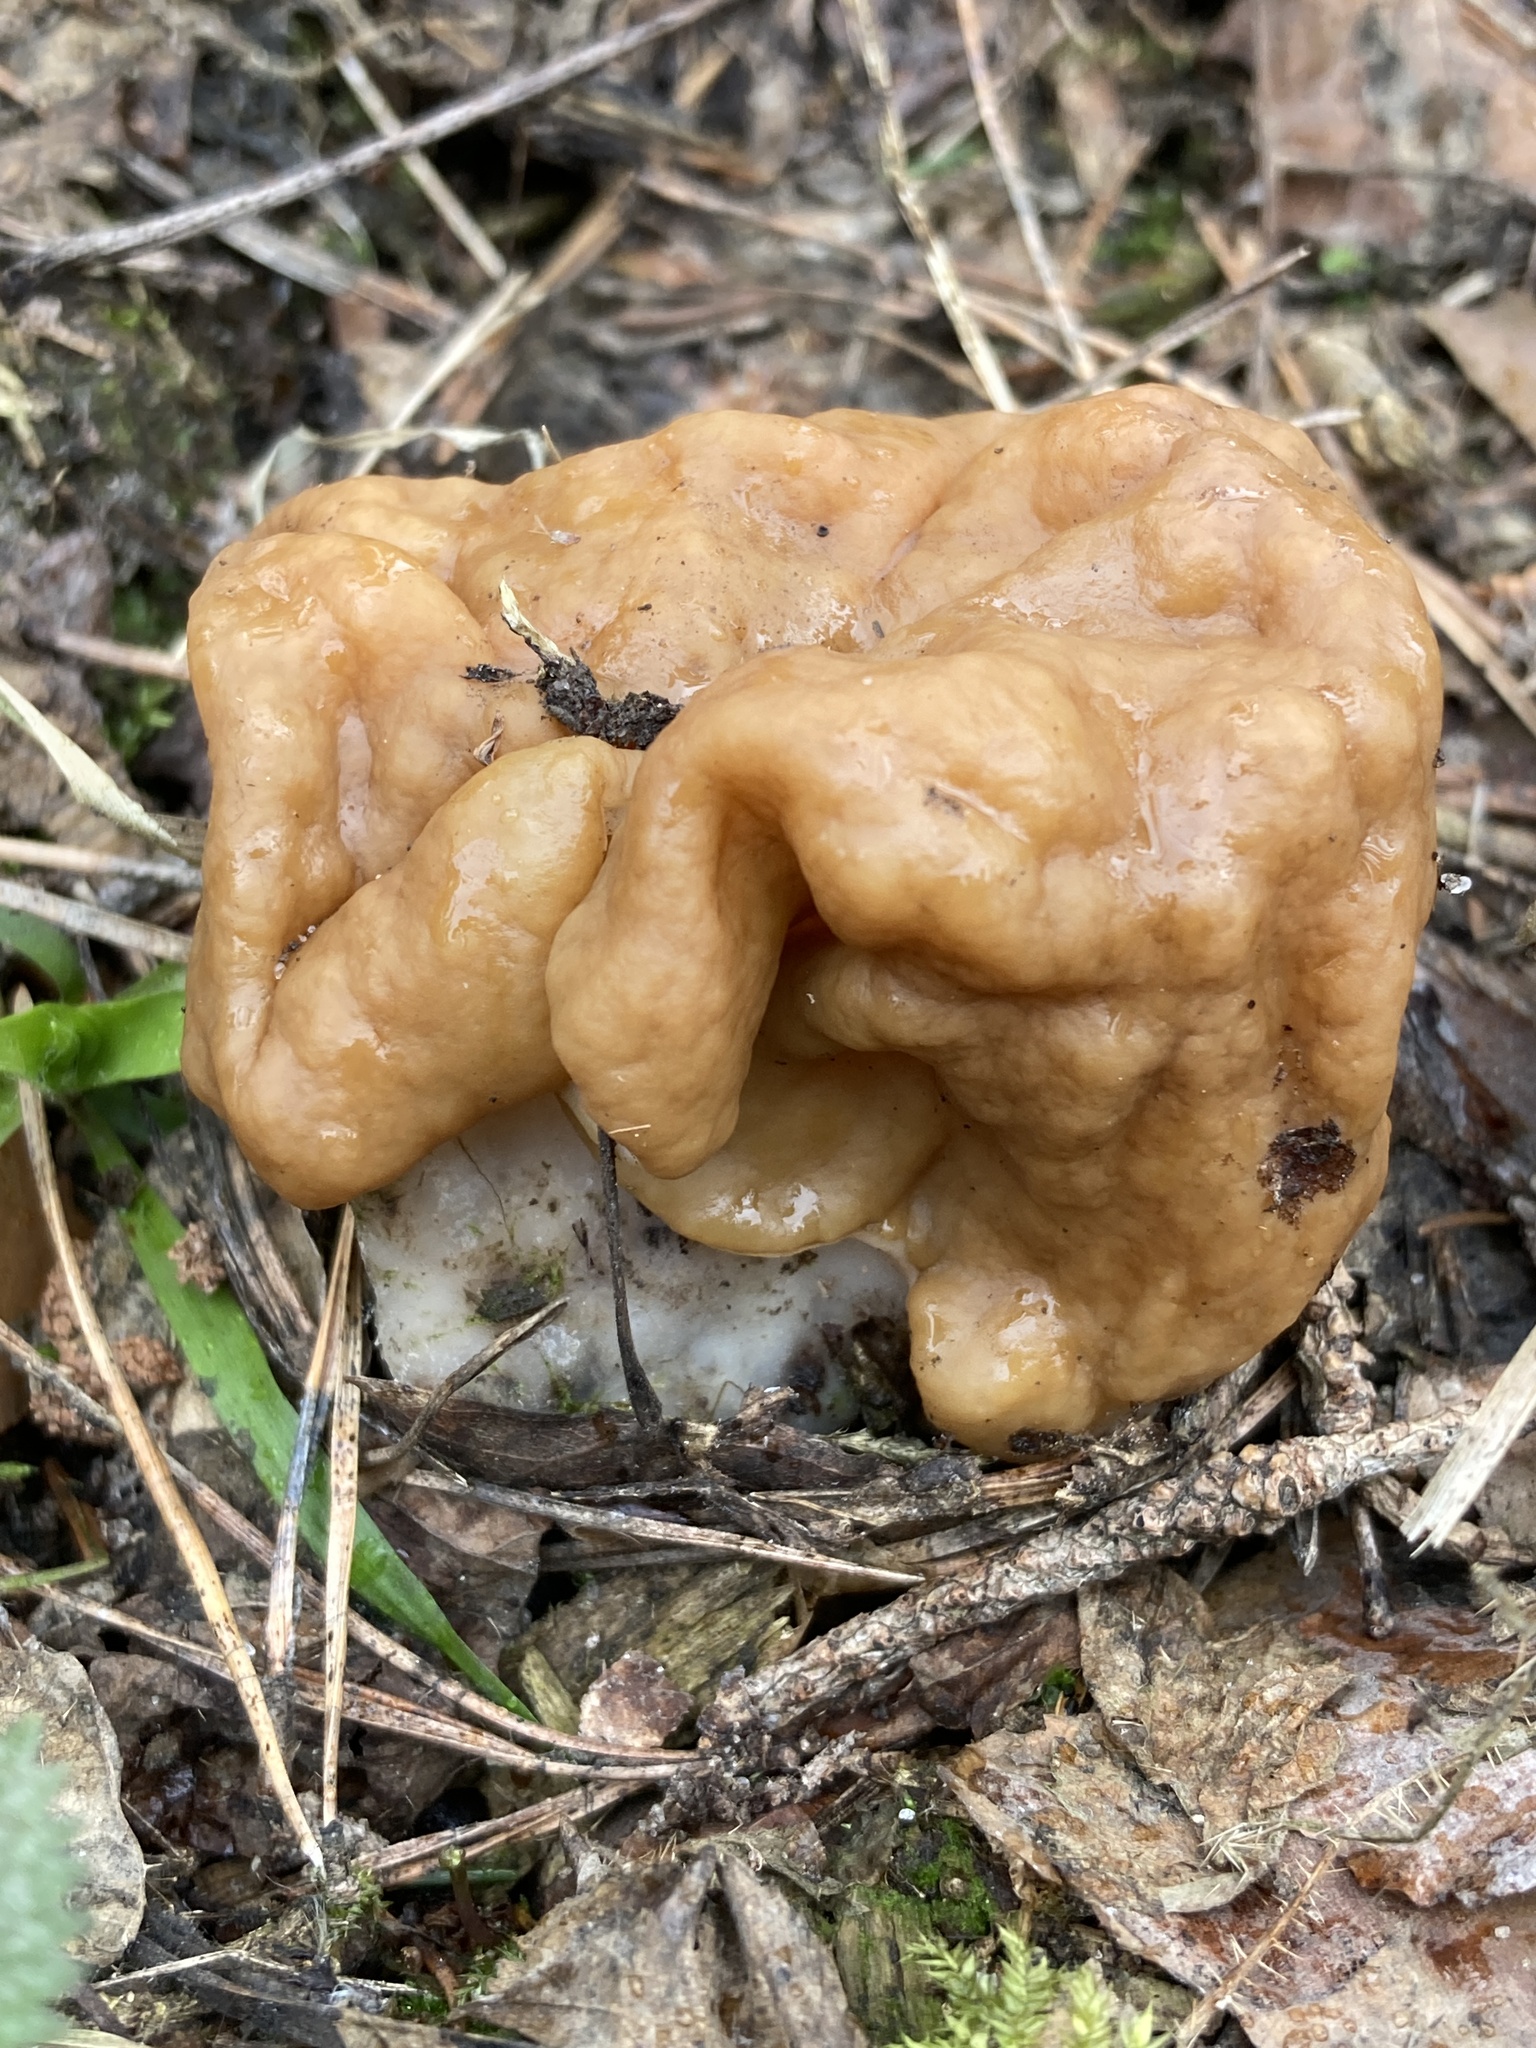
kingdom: Fungi
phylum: Ascomycota
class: Pezizomycetes
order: Pezizales
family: Discinaceae
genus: Gyromitra
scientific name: Gyromitra gigas
